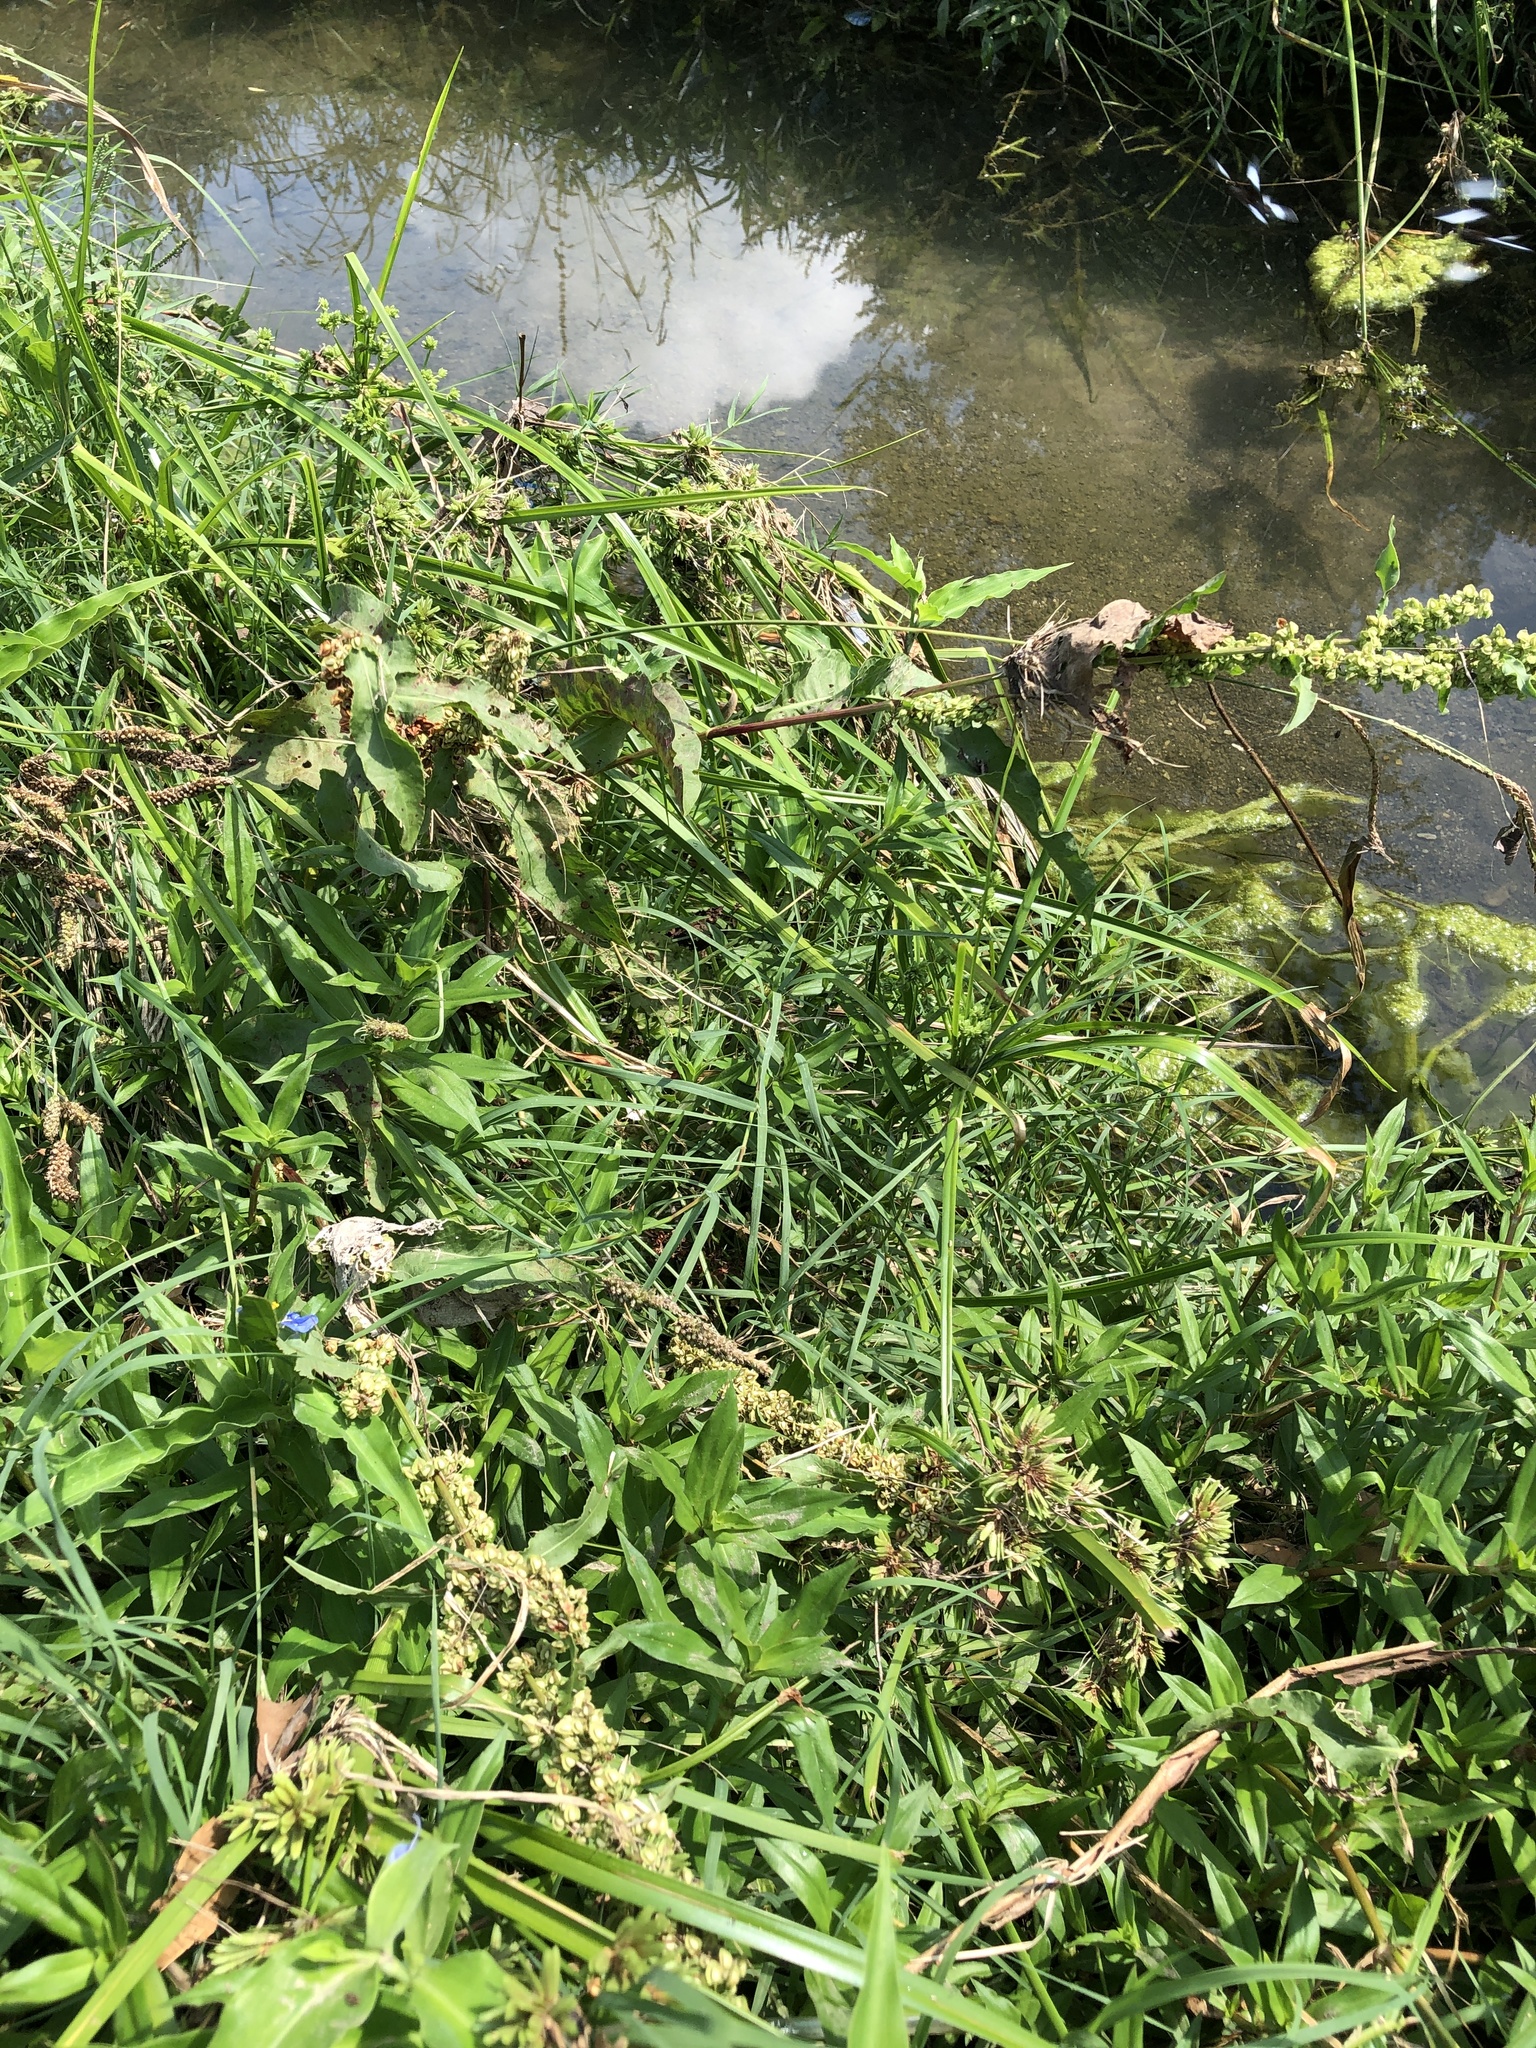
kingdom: Plantae
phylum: Tracheophyta
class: Magnoliopsida
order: Caryophyllales
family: Polygonaceae
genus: Rumex
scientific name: Rumex pulcher
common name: Fiddle dock
